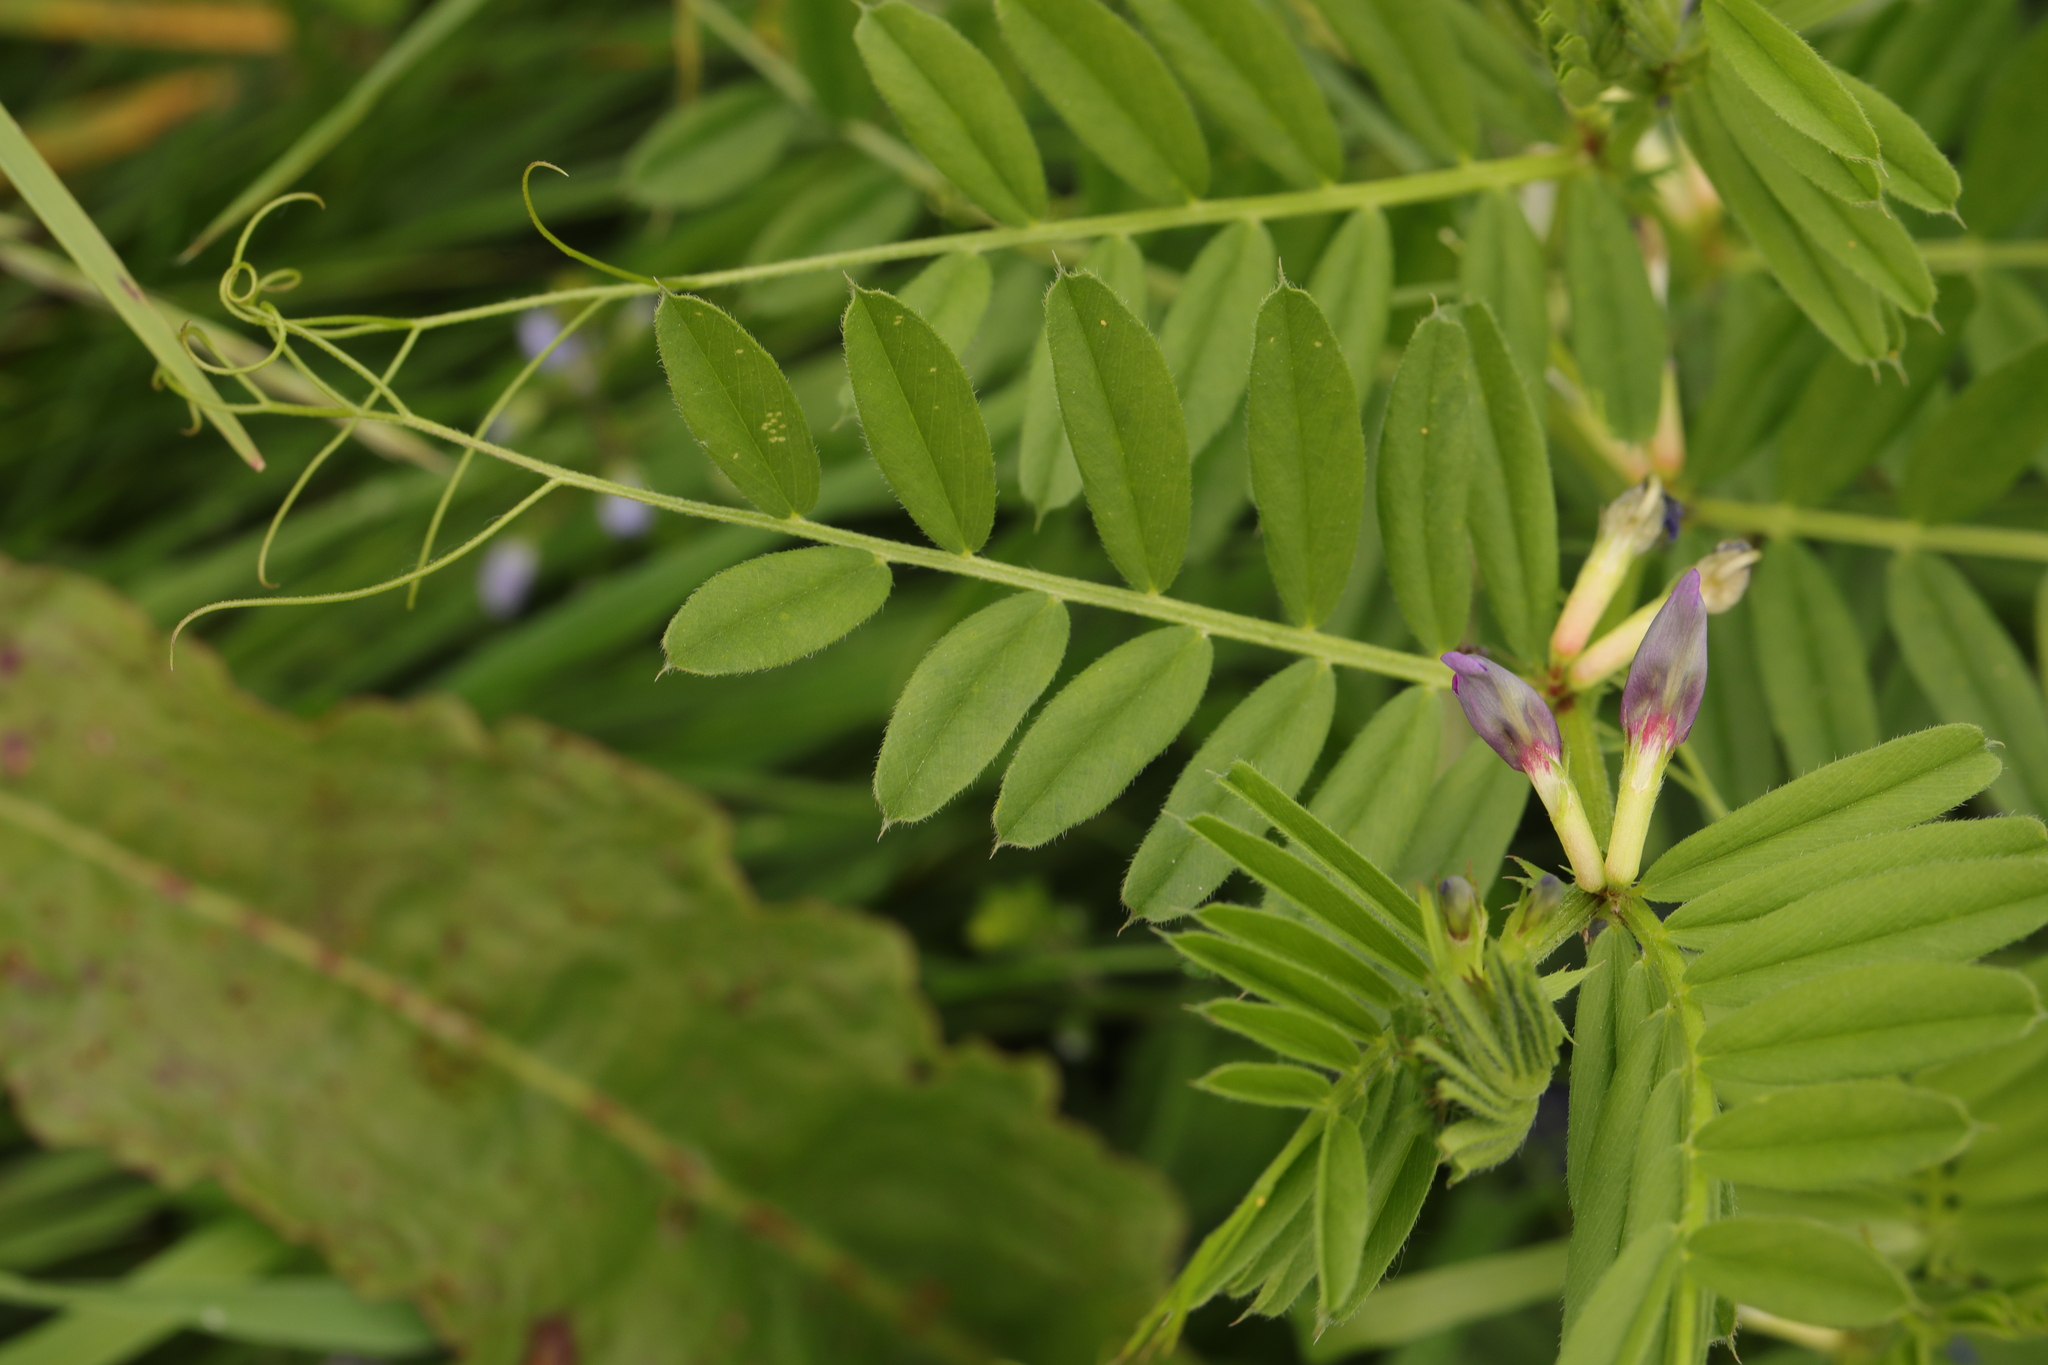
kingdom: Plantae
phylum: Tracheophyta
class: Magnoliopsida
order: Fabales
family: Fabaceae
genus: Vicia
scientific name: Vicia sativa
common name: Garden vetch
